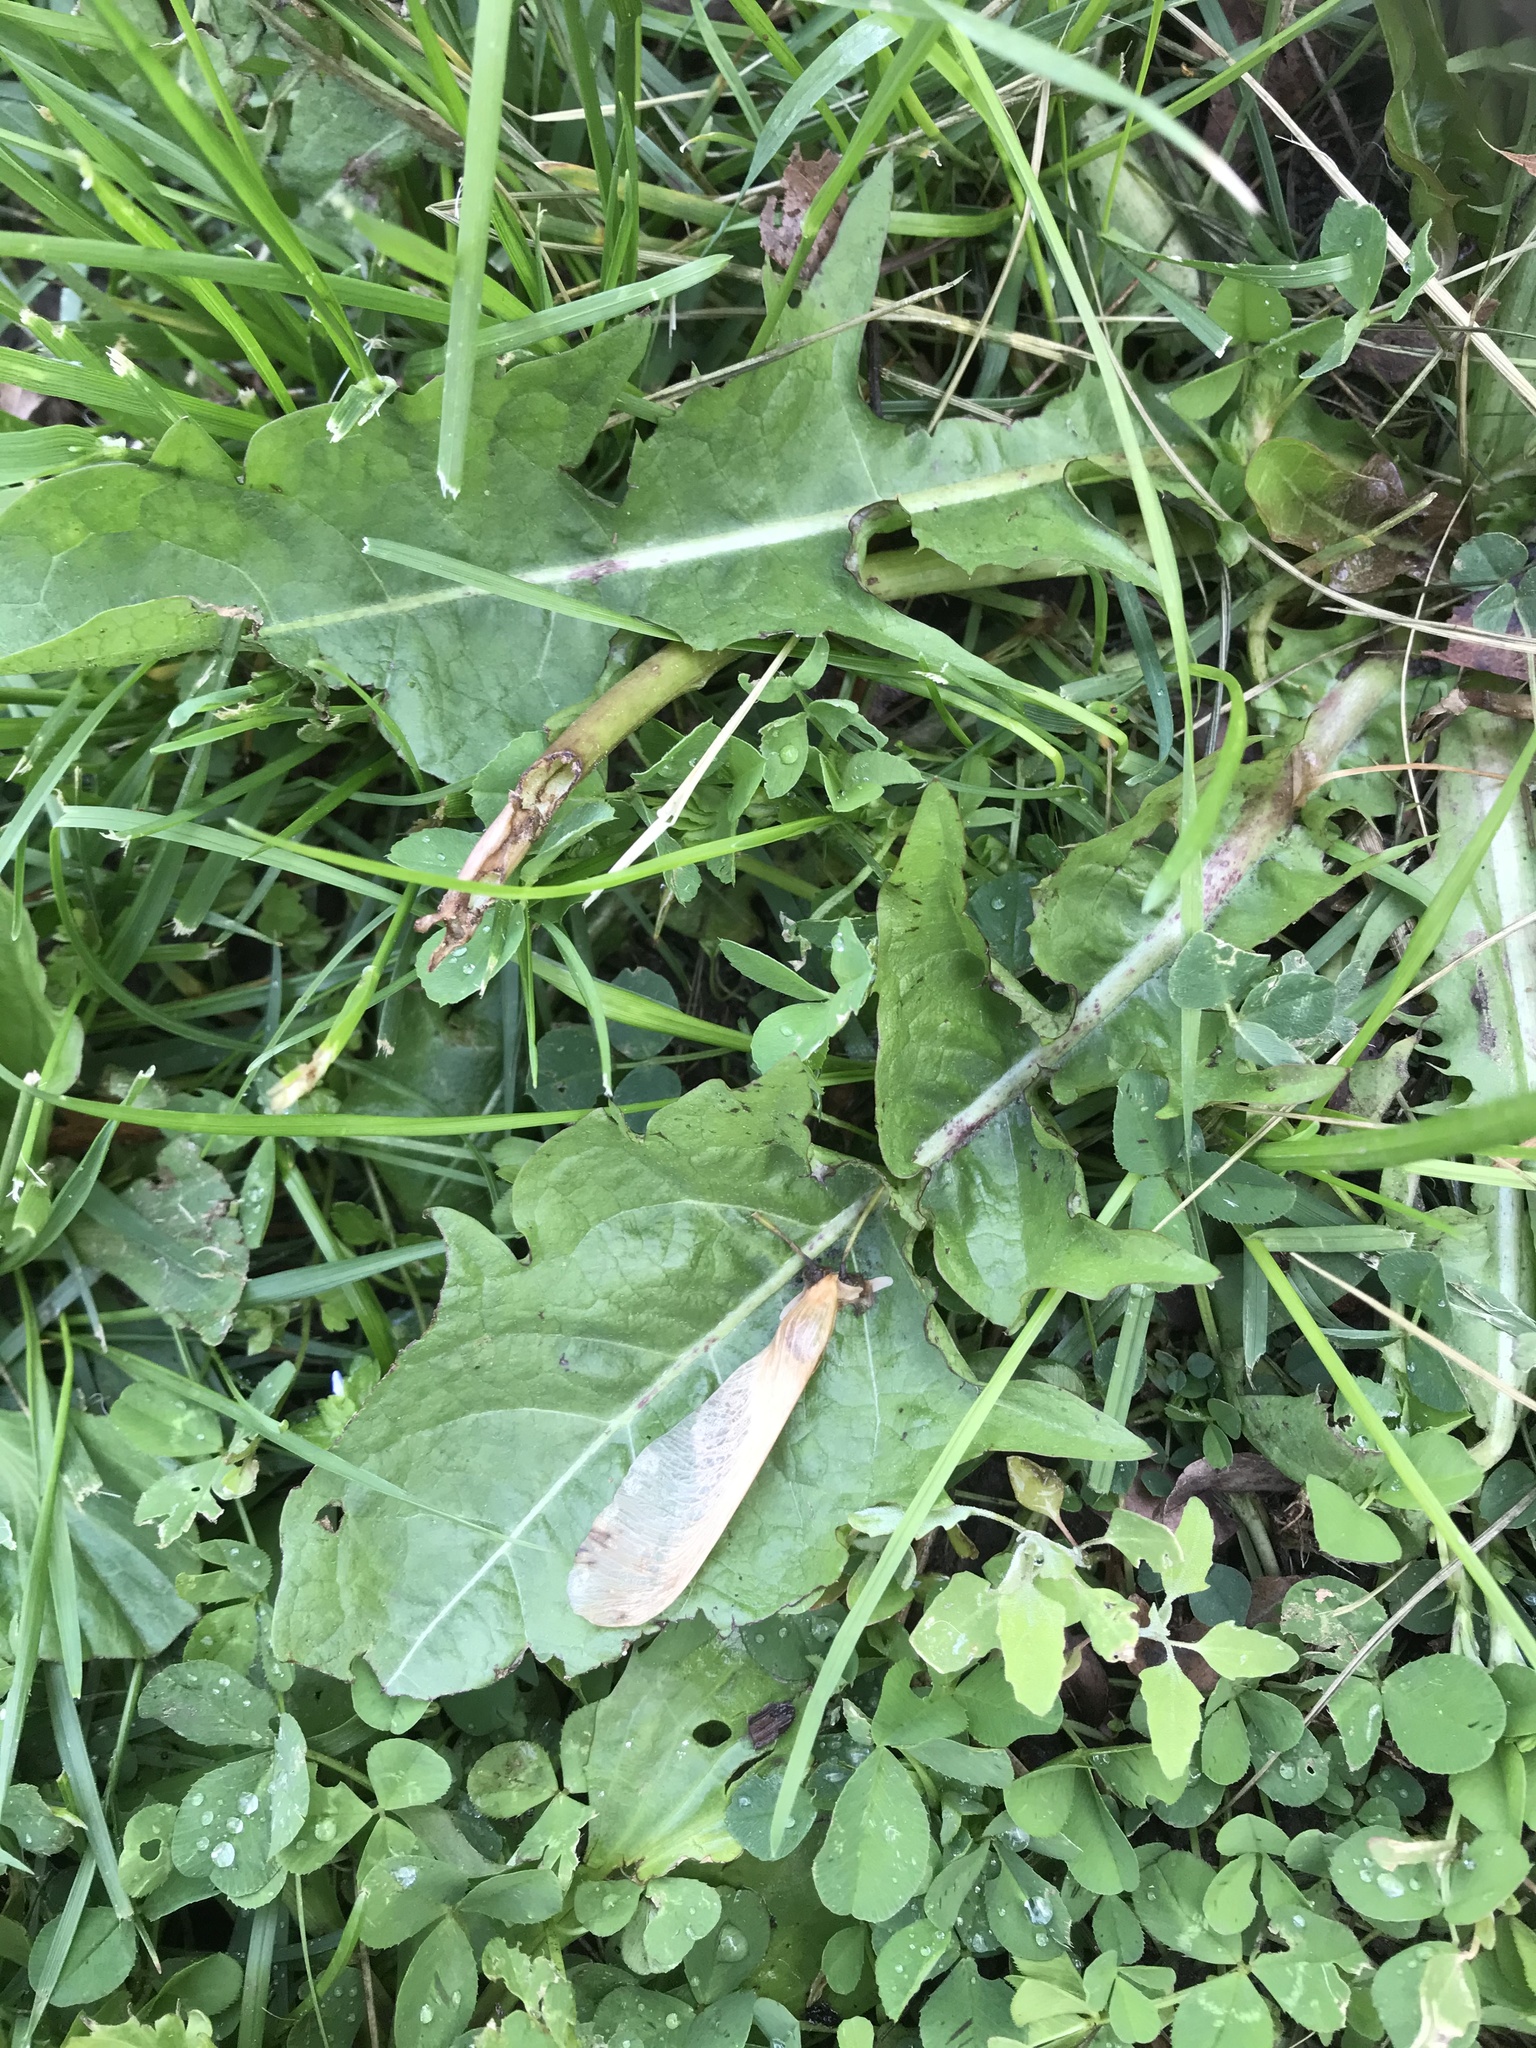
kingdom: Plantae
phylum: Tracheophyta
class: Magnoliopsida
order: Asterales
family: Asteraceae
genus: Taraxacum
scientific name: Taraxacum officinale
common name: Common dandelion
